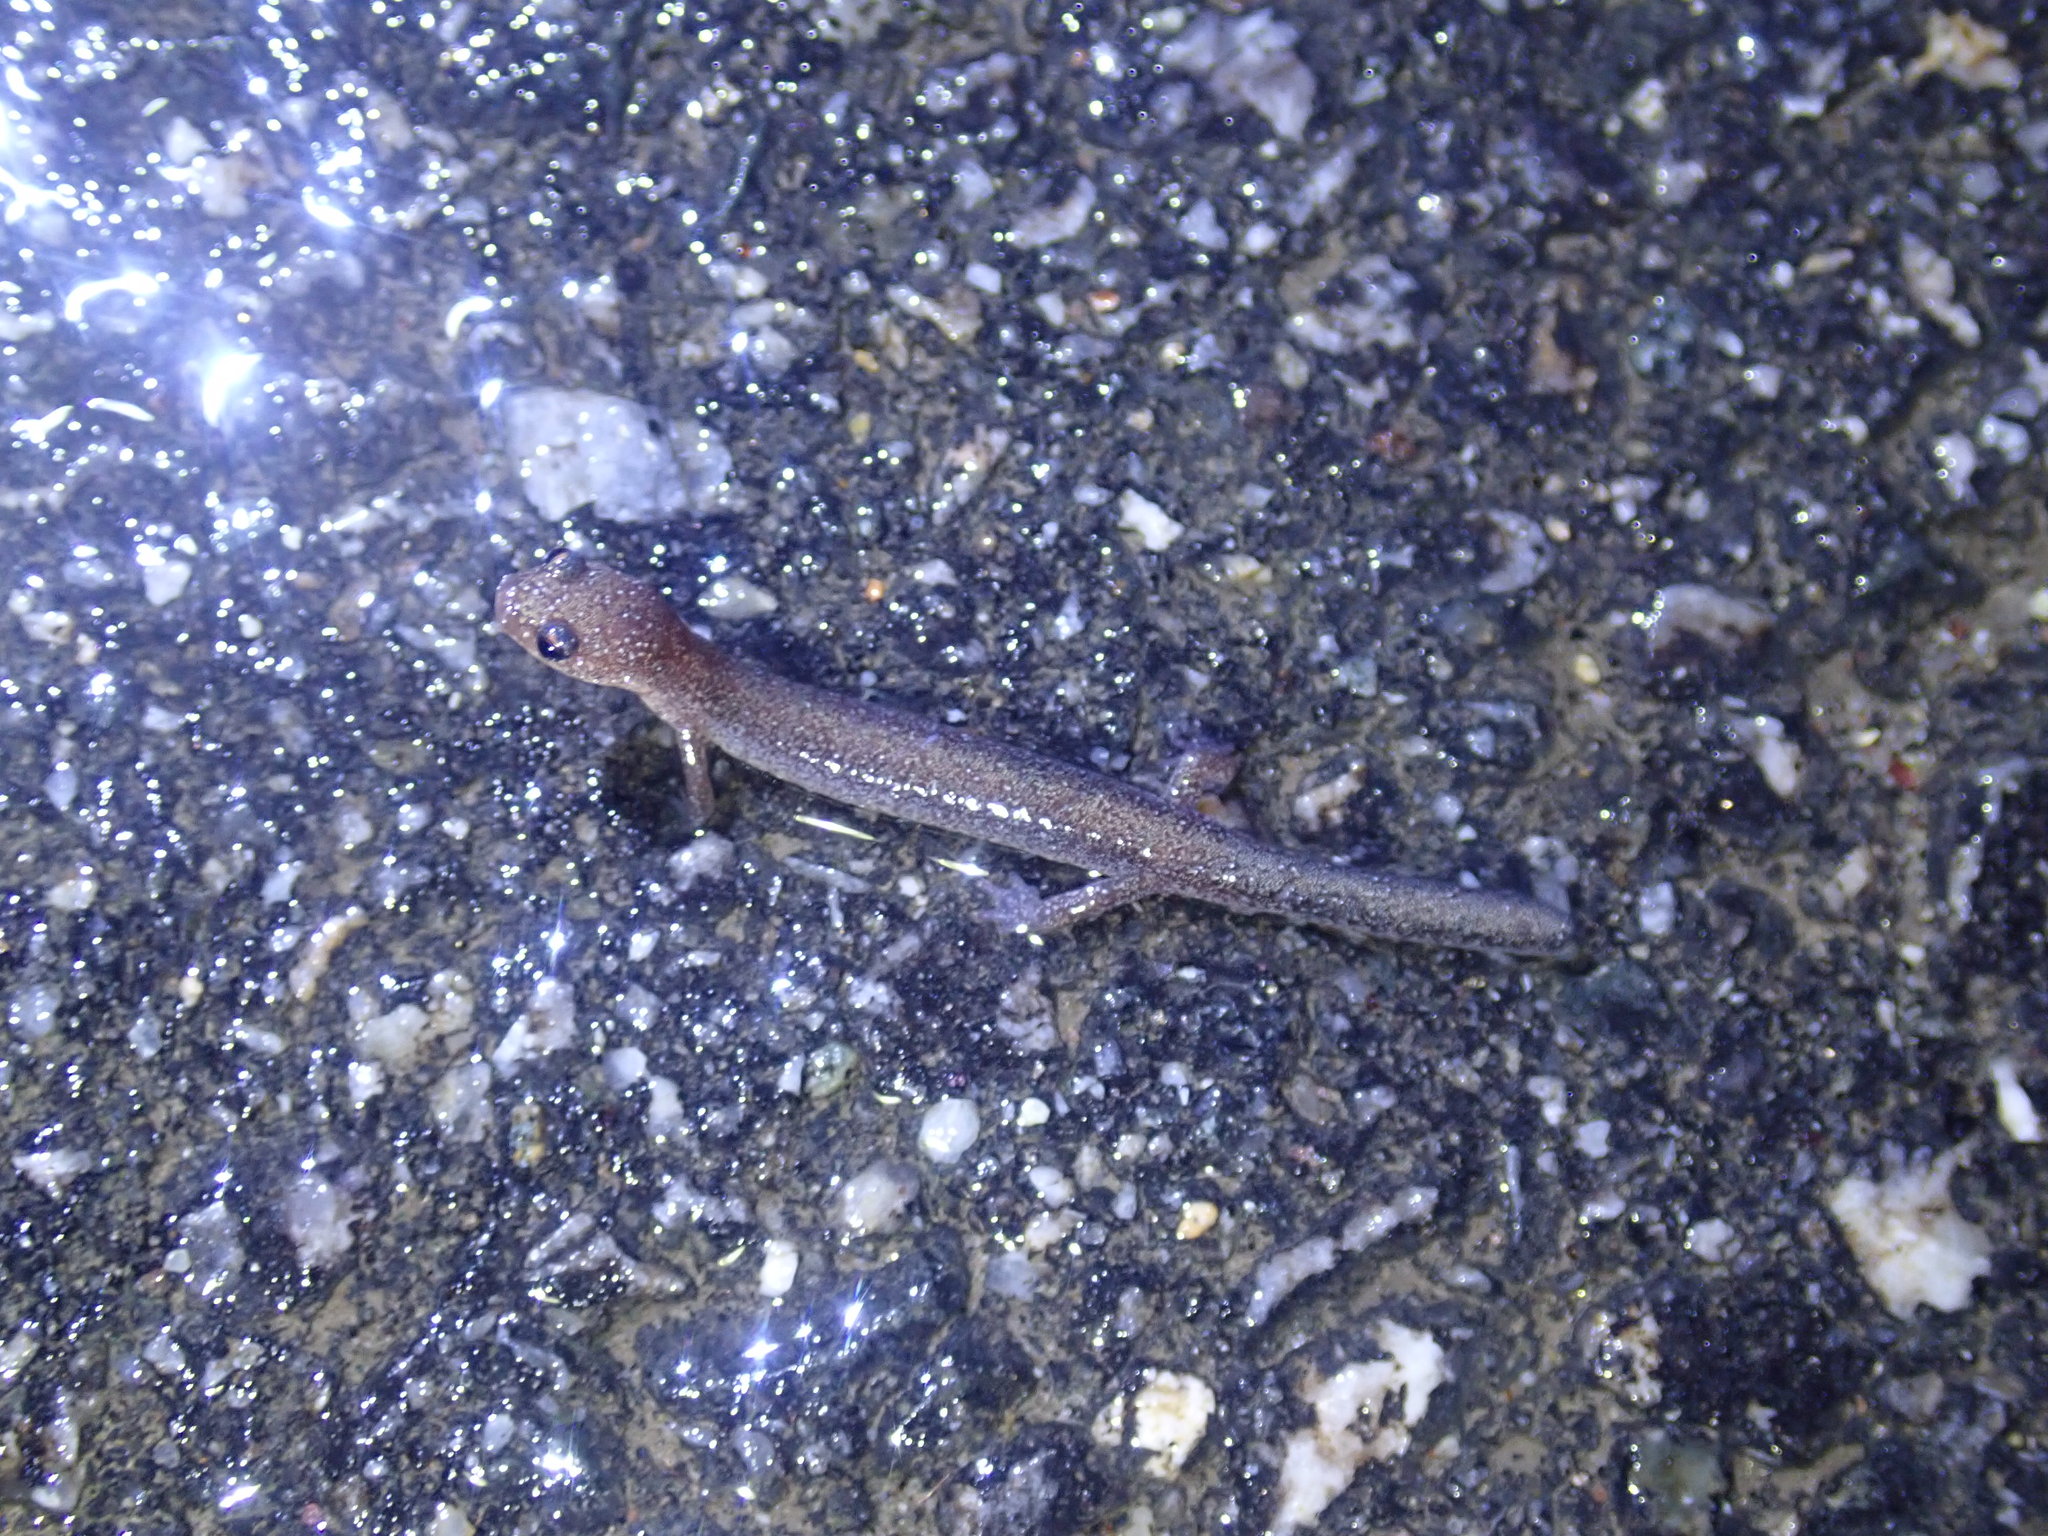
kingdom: Animalia
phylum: Chordata
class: Amphibia
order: Caudata
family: Plethodontidae
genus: Plethodon
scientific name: Plethodon cinereus
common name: Redback salamander
